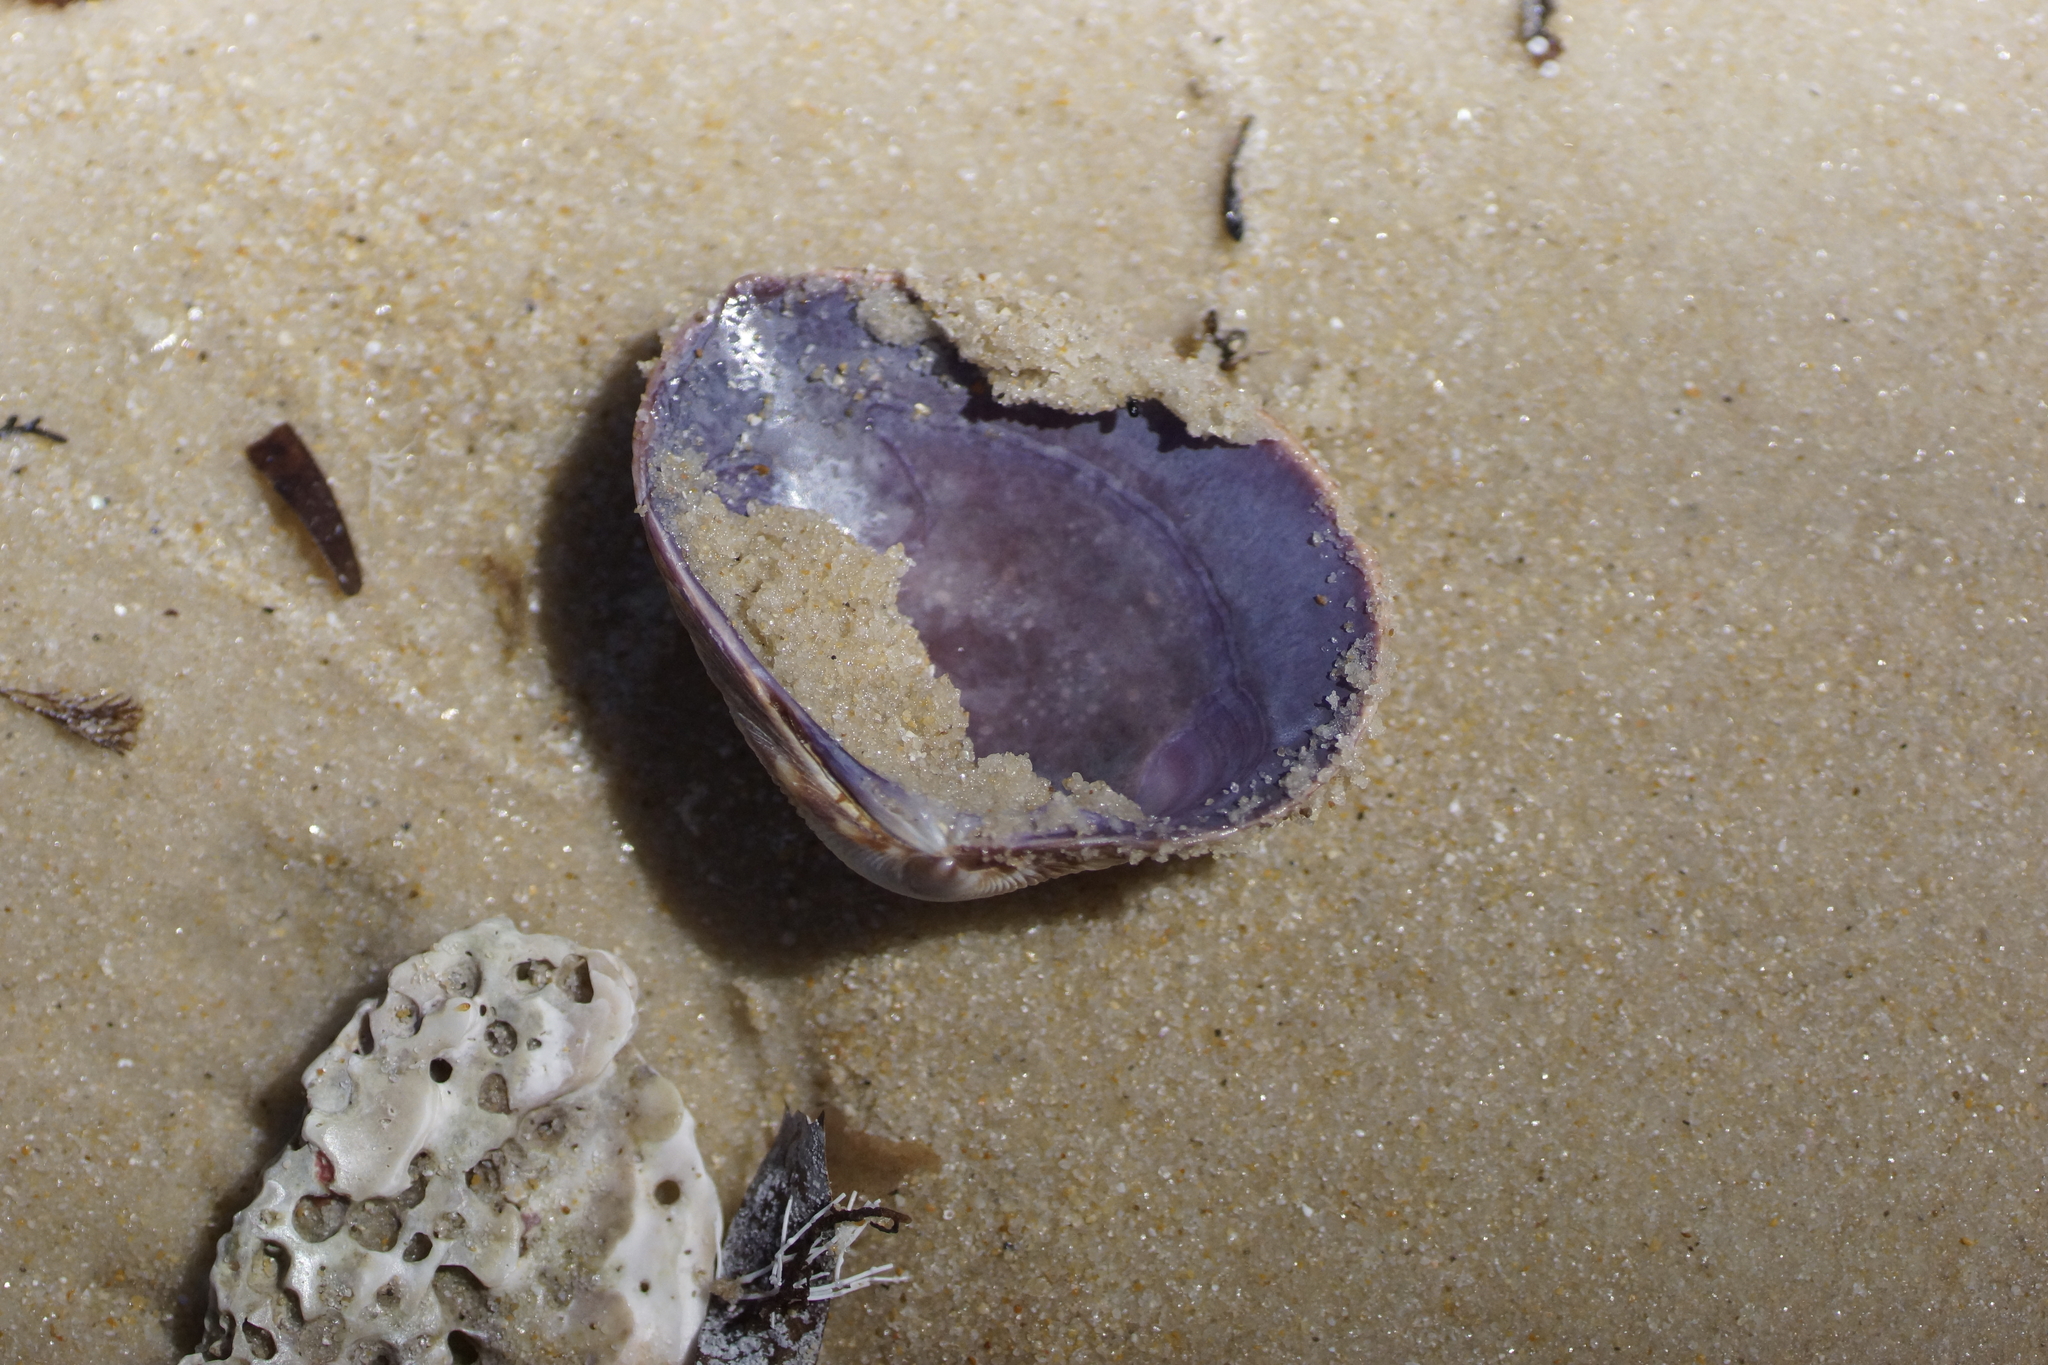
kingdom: Animalia
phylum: Mollusca
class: Bivalvia
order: Venerida
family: Veneridae
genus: Tawera
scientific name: Tawera gallinula
